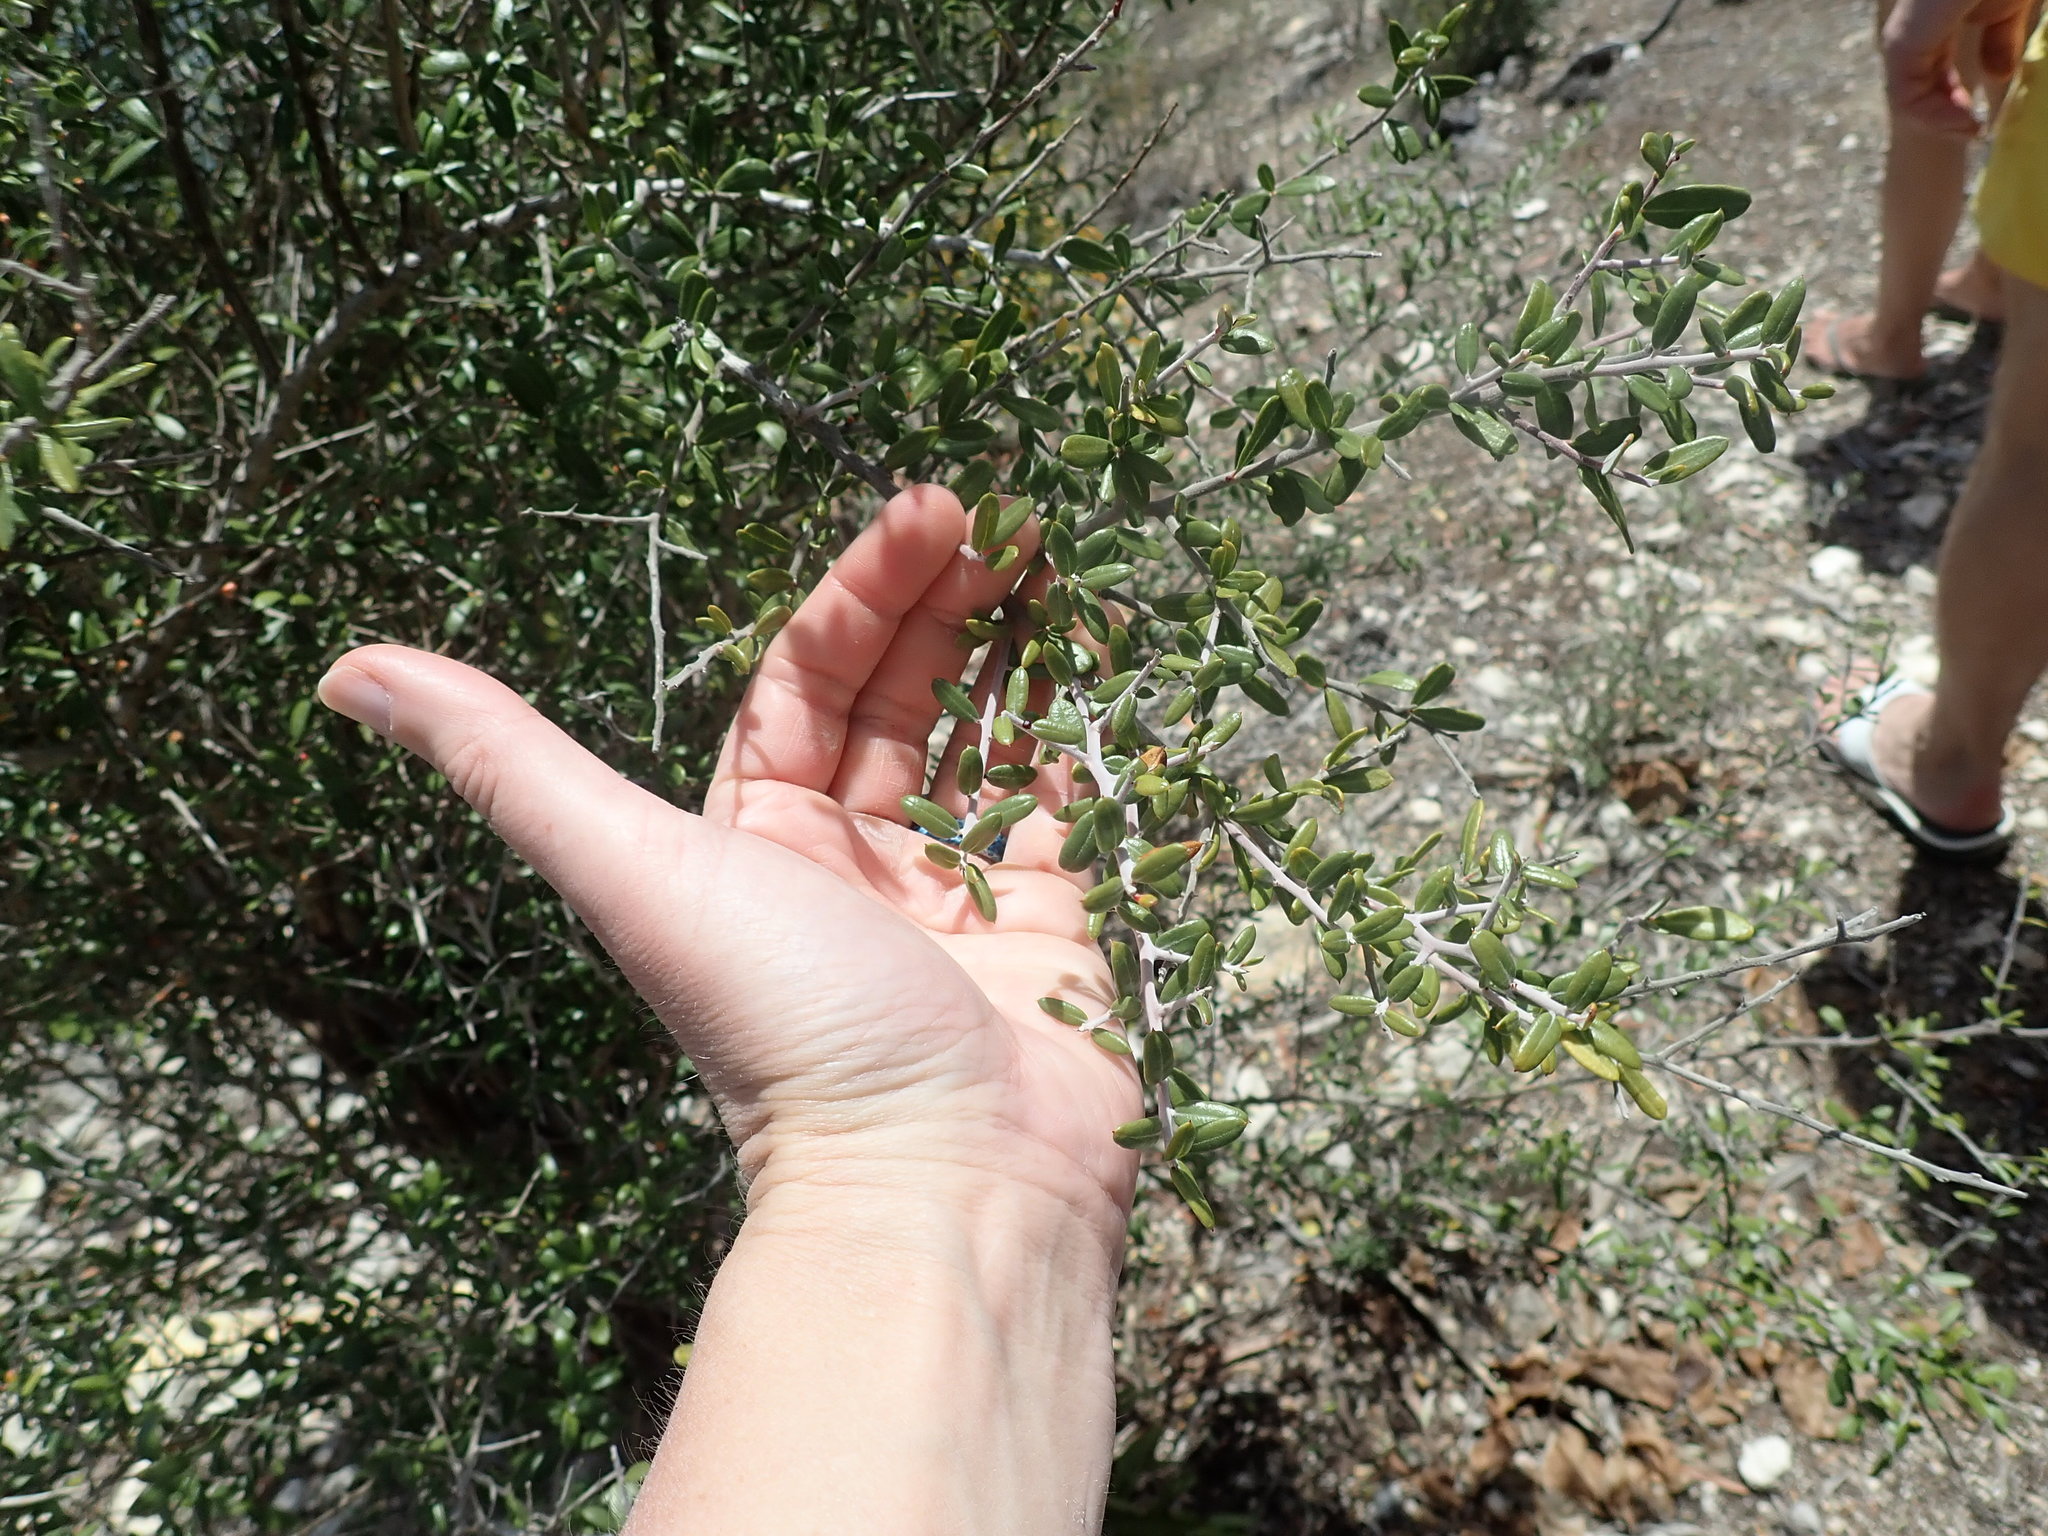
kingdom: Plantae
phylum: Tracheophyta
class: Magnoliopsida
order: Sapindales
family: Simaroubaceae
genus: Castela
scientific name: Castela erecta
